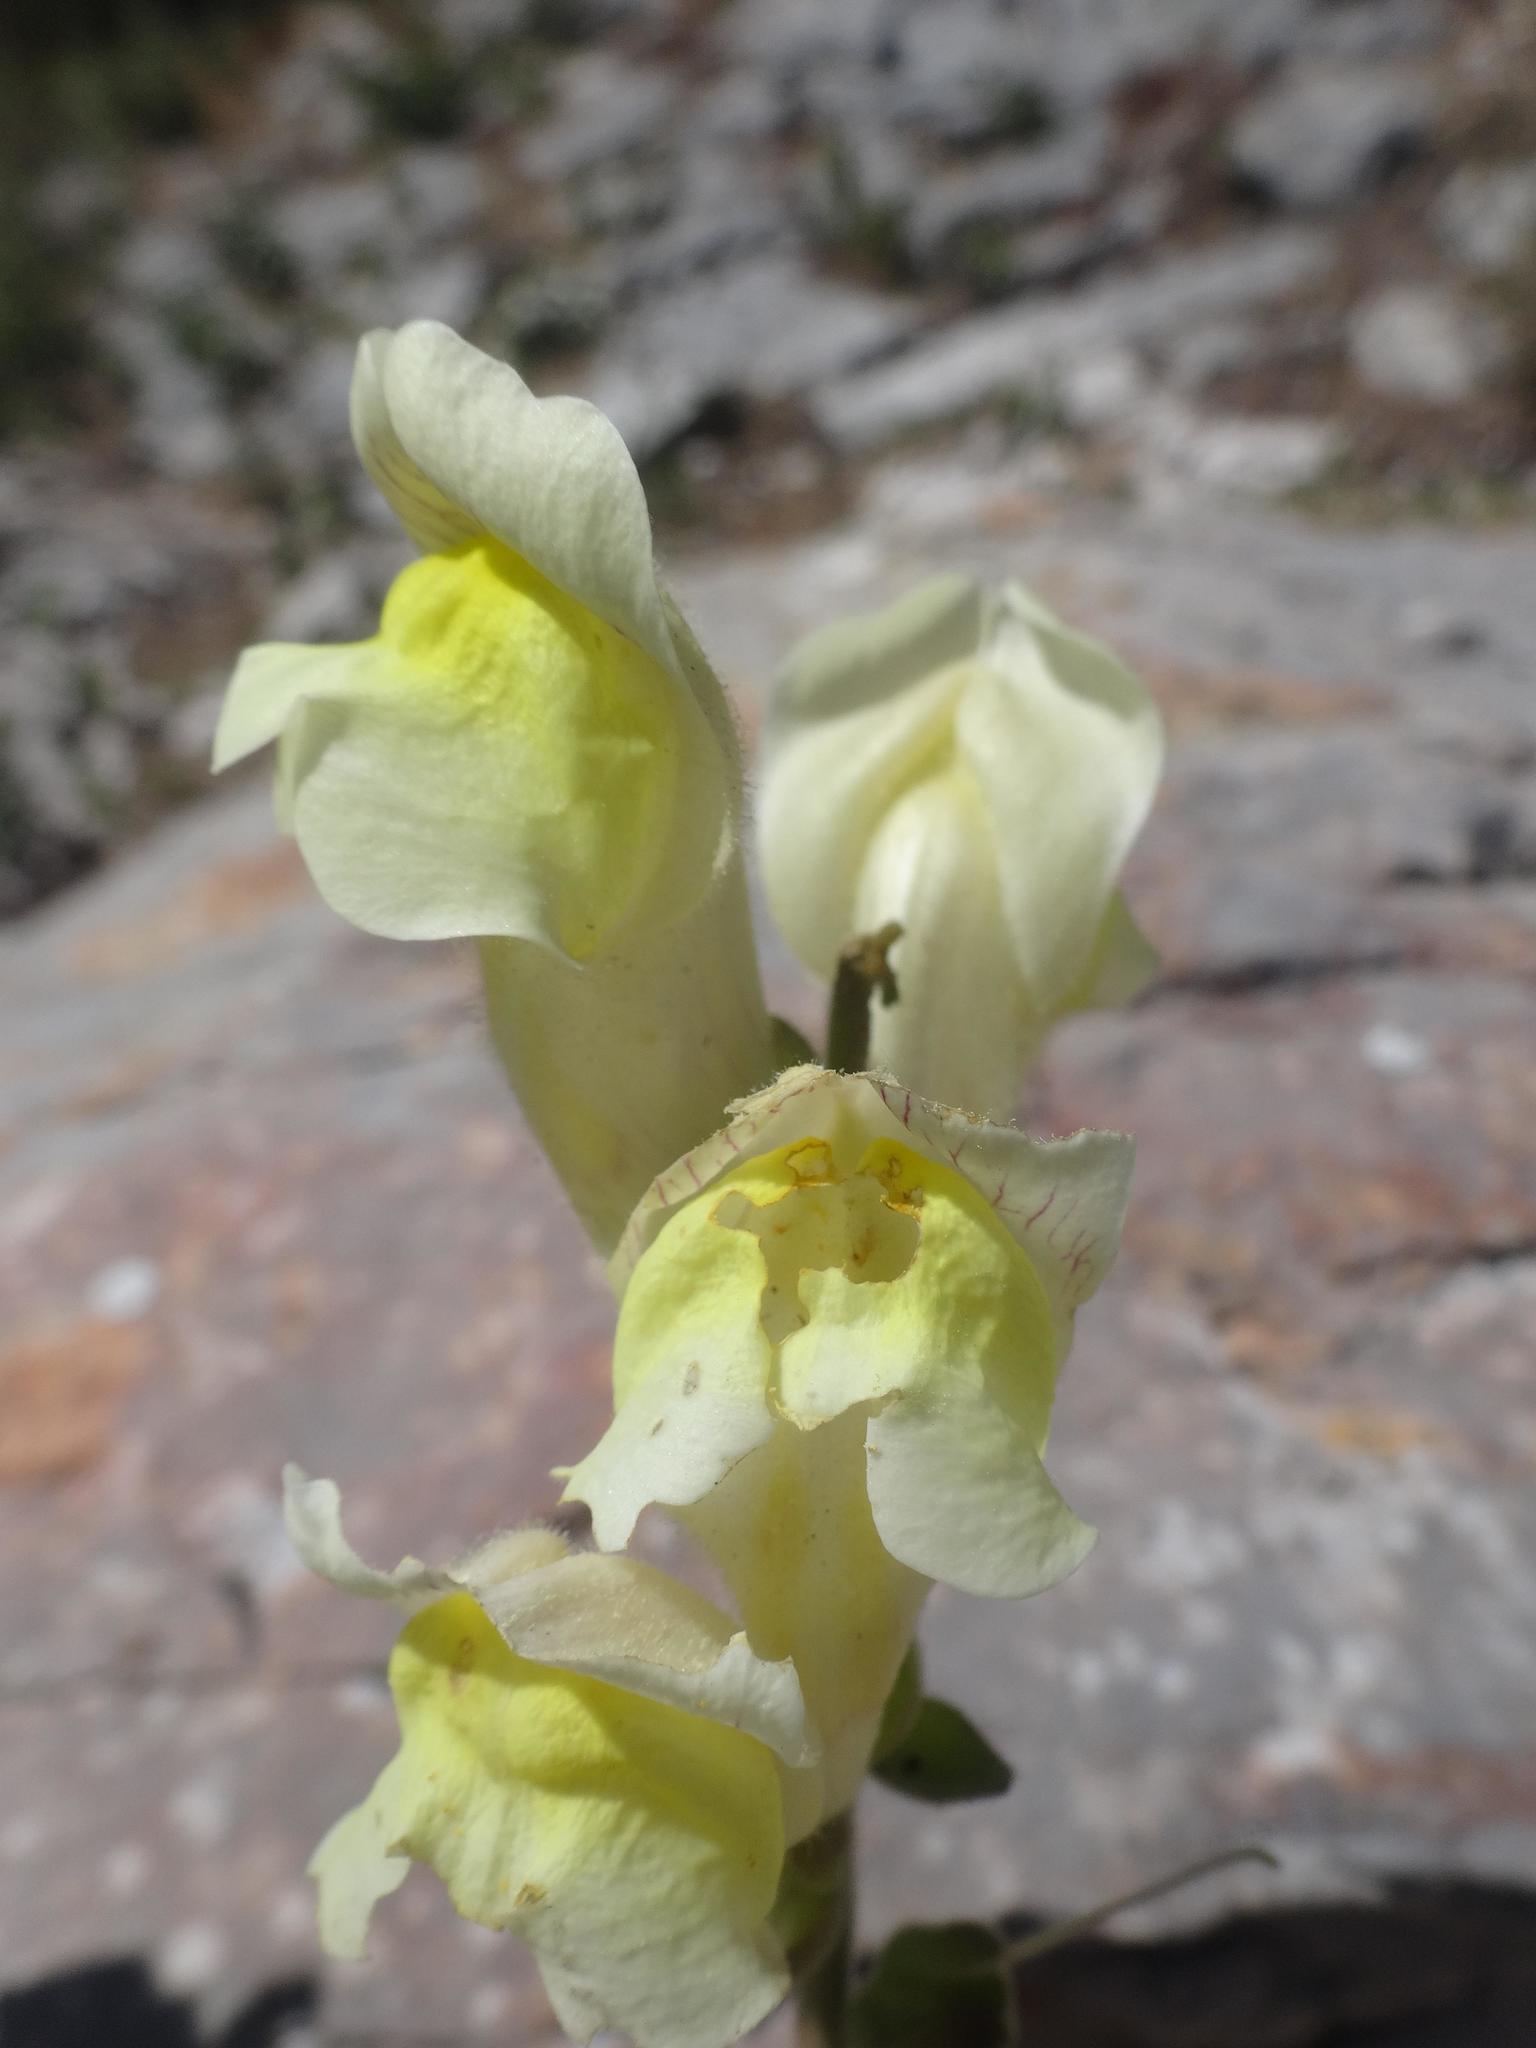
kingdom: Plantae
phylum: Tracheophyta
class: Magnoliopsida
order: Lamiales
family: Plantaginaceae
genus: Antirrhinum
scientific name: Antirrhinum latifolium
